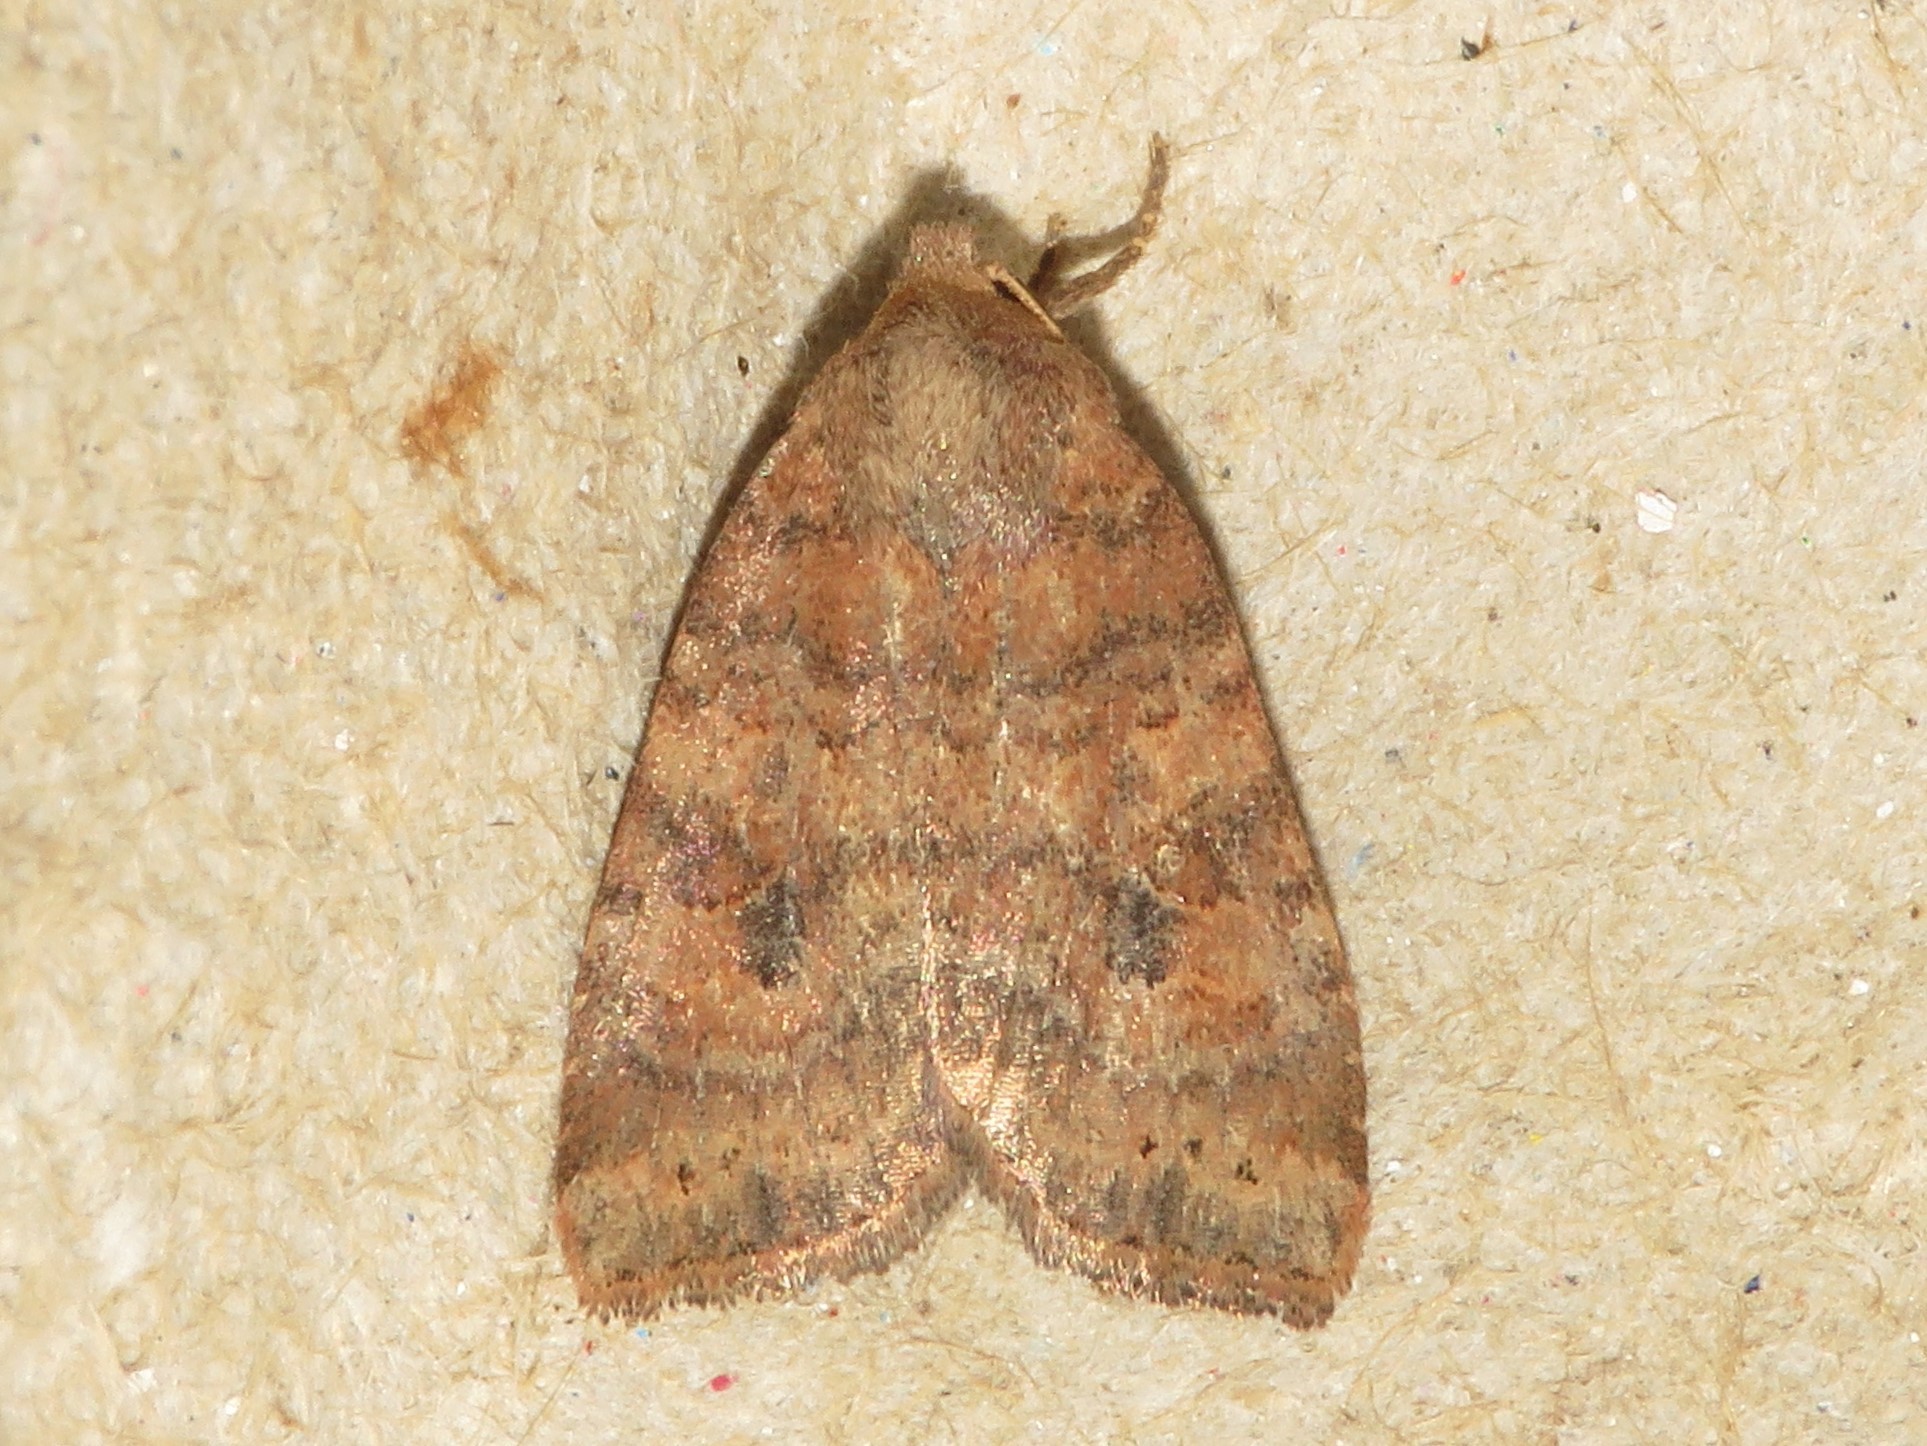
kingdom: Animalia
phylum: Arthropoda
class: Insecta
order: Lepidoptera
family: Noctuidae
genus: Anathix
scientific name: Anathix puta
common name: Puta sallow
